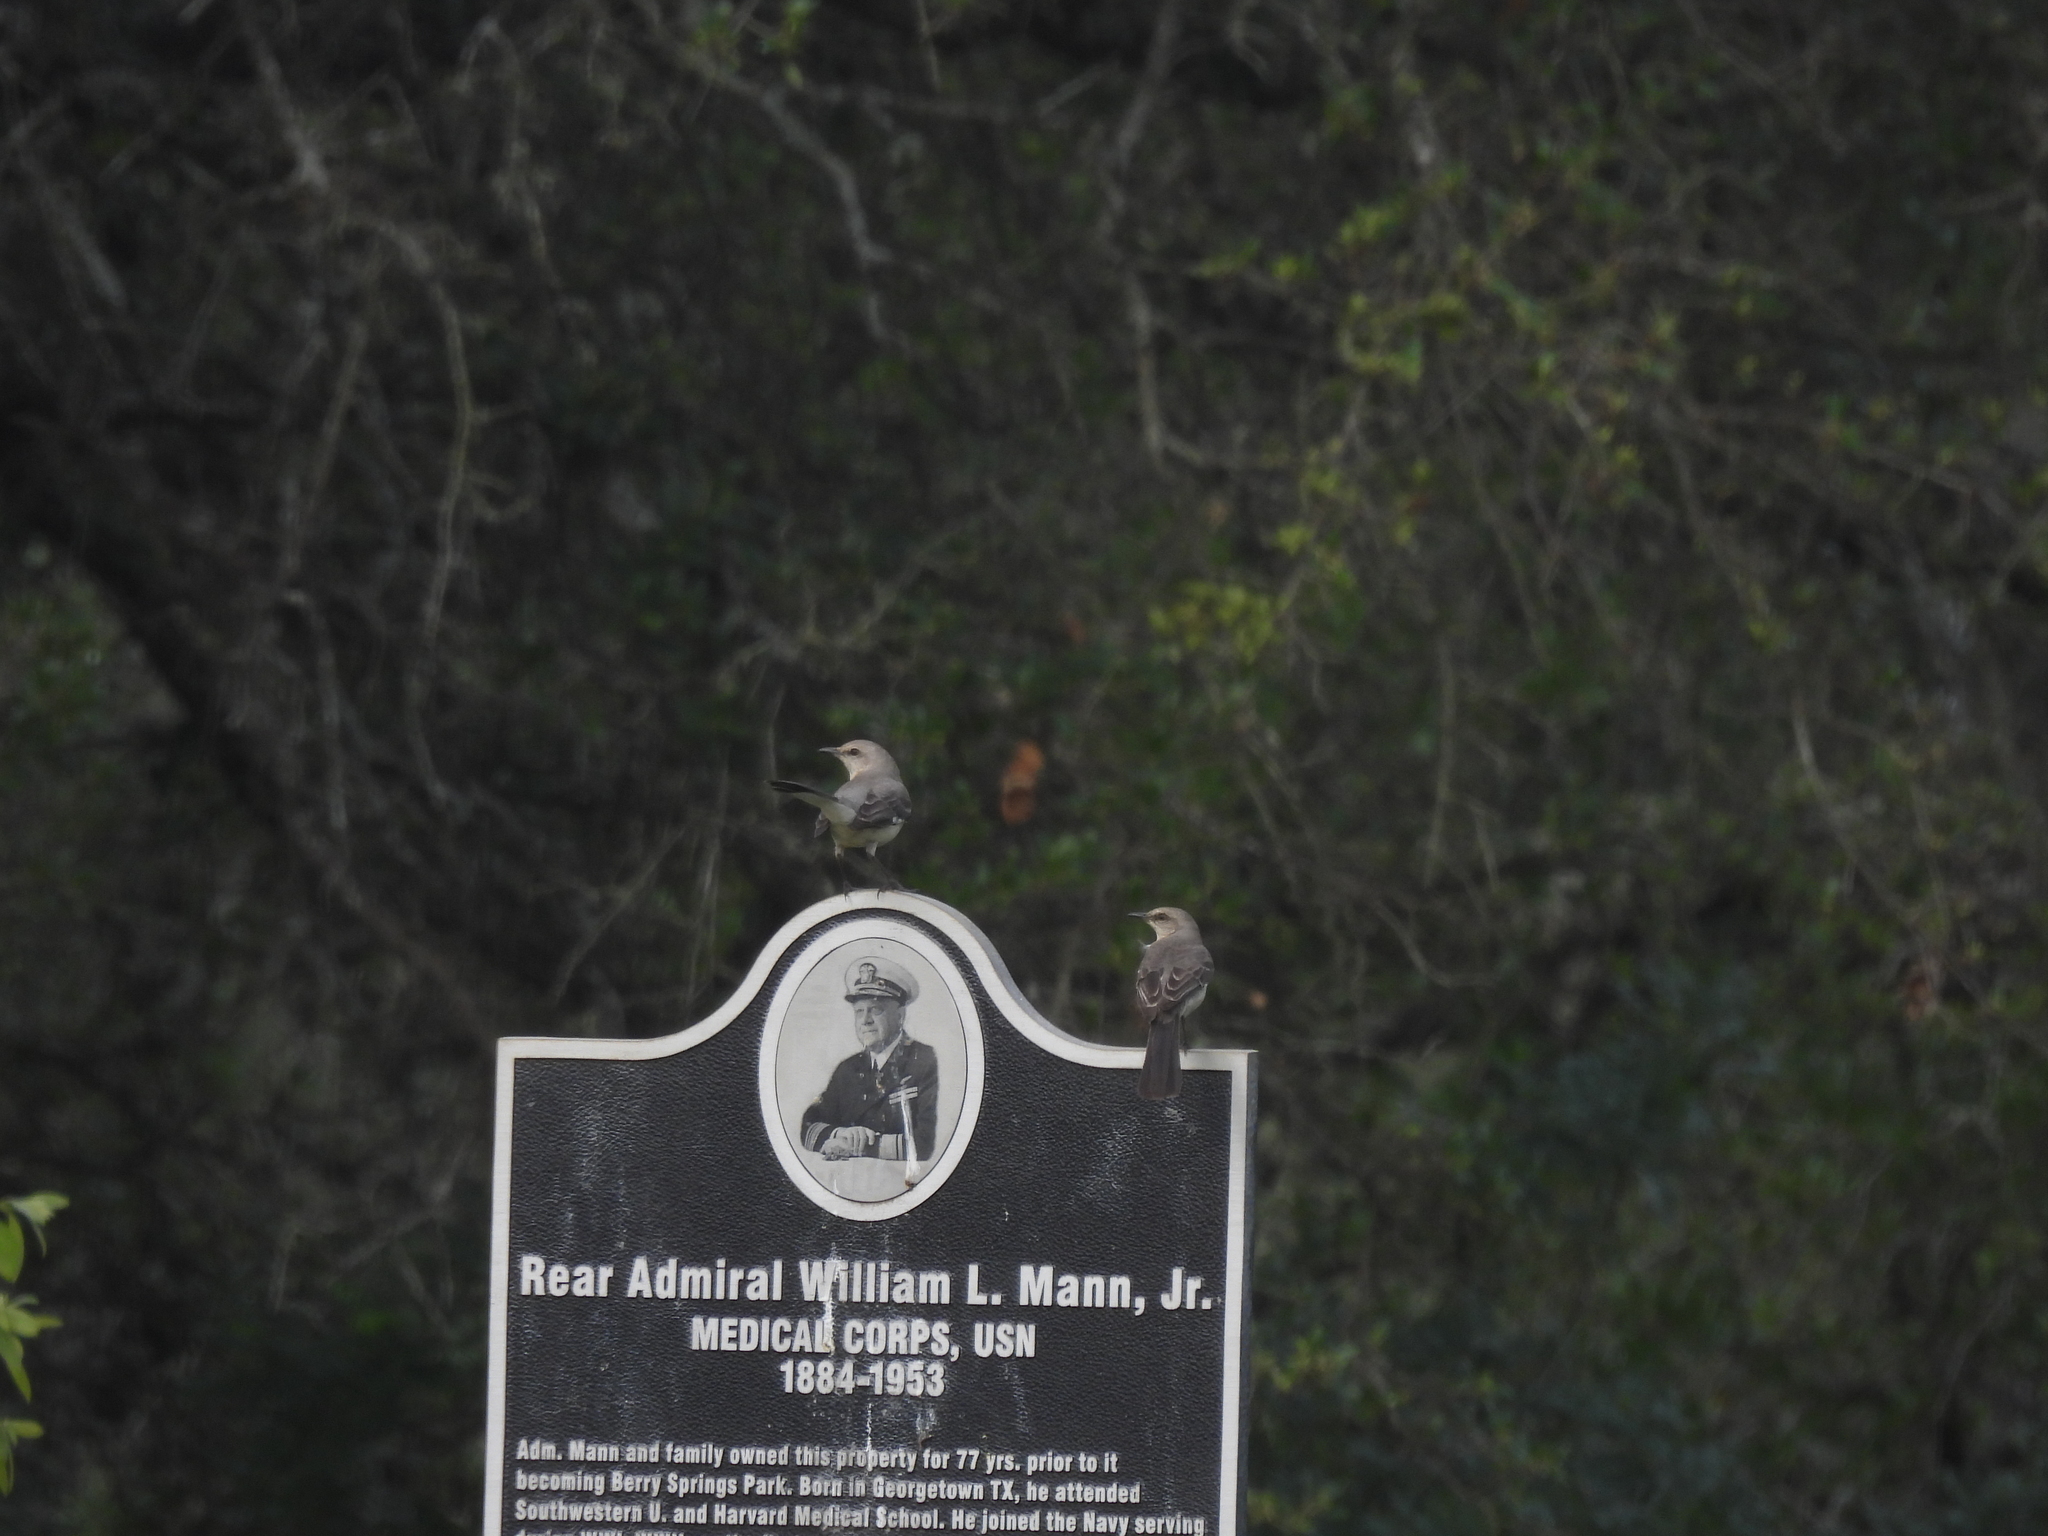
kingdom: Animalia
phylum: Chordata
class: Aves
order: Passeriformes
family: Mimidae
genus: Mimus
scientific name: Mimus polyglottos
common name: Northern mockingbird
